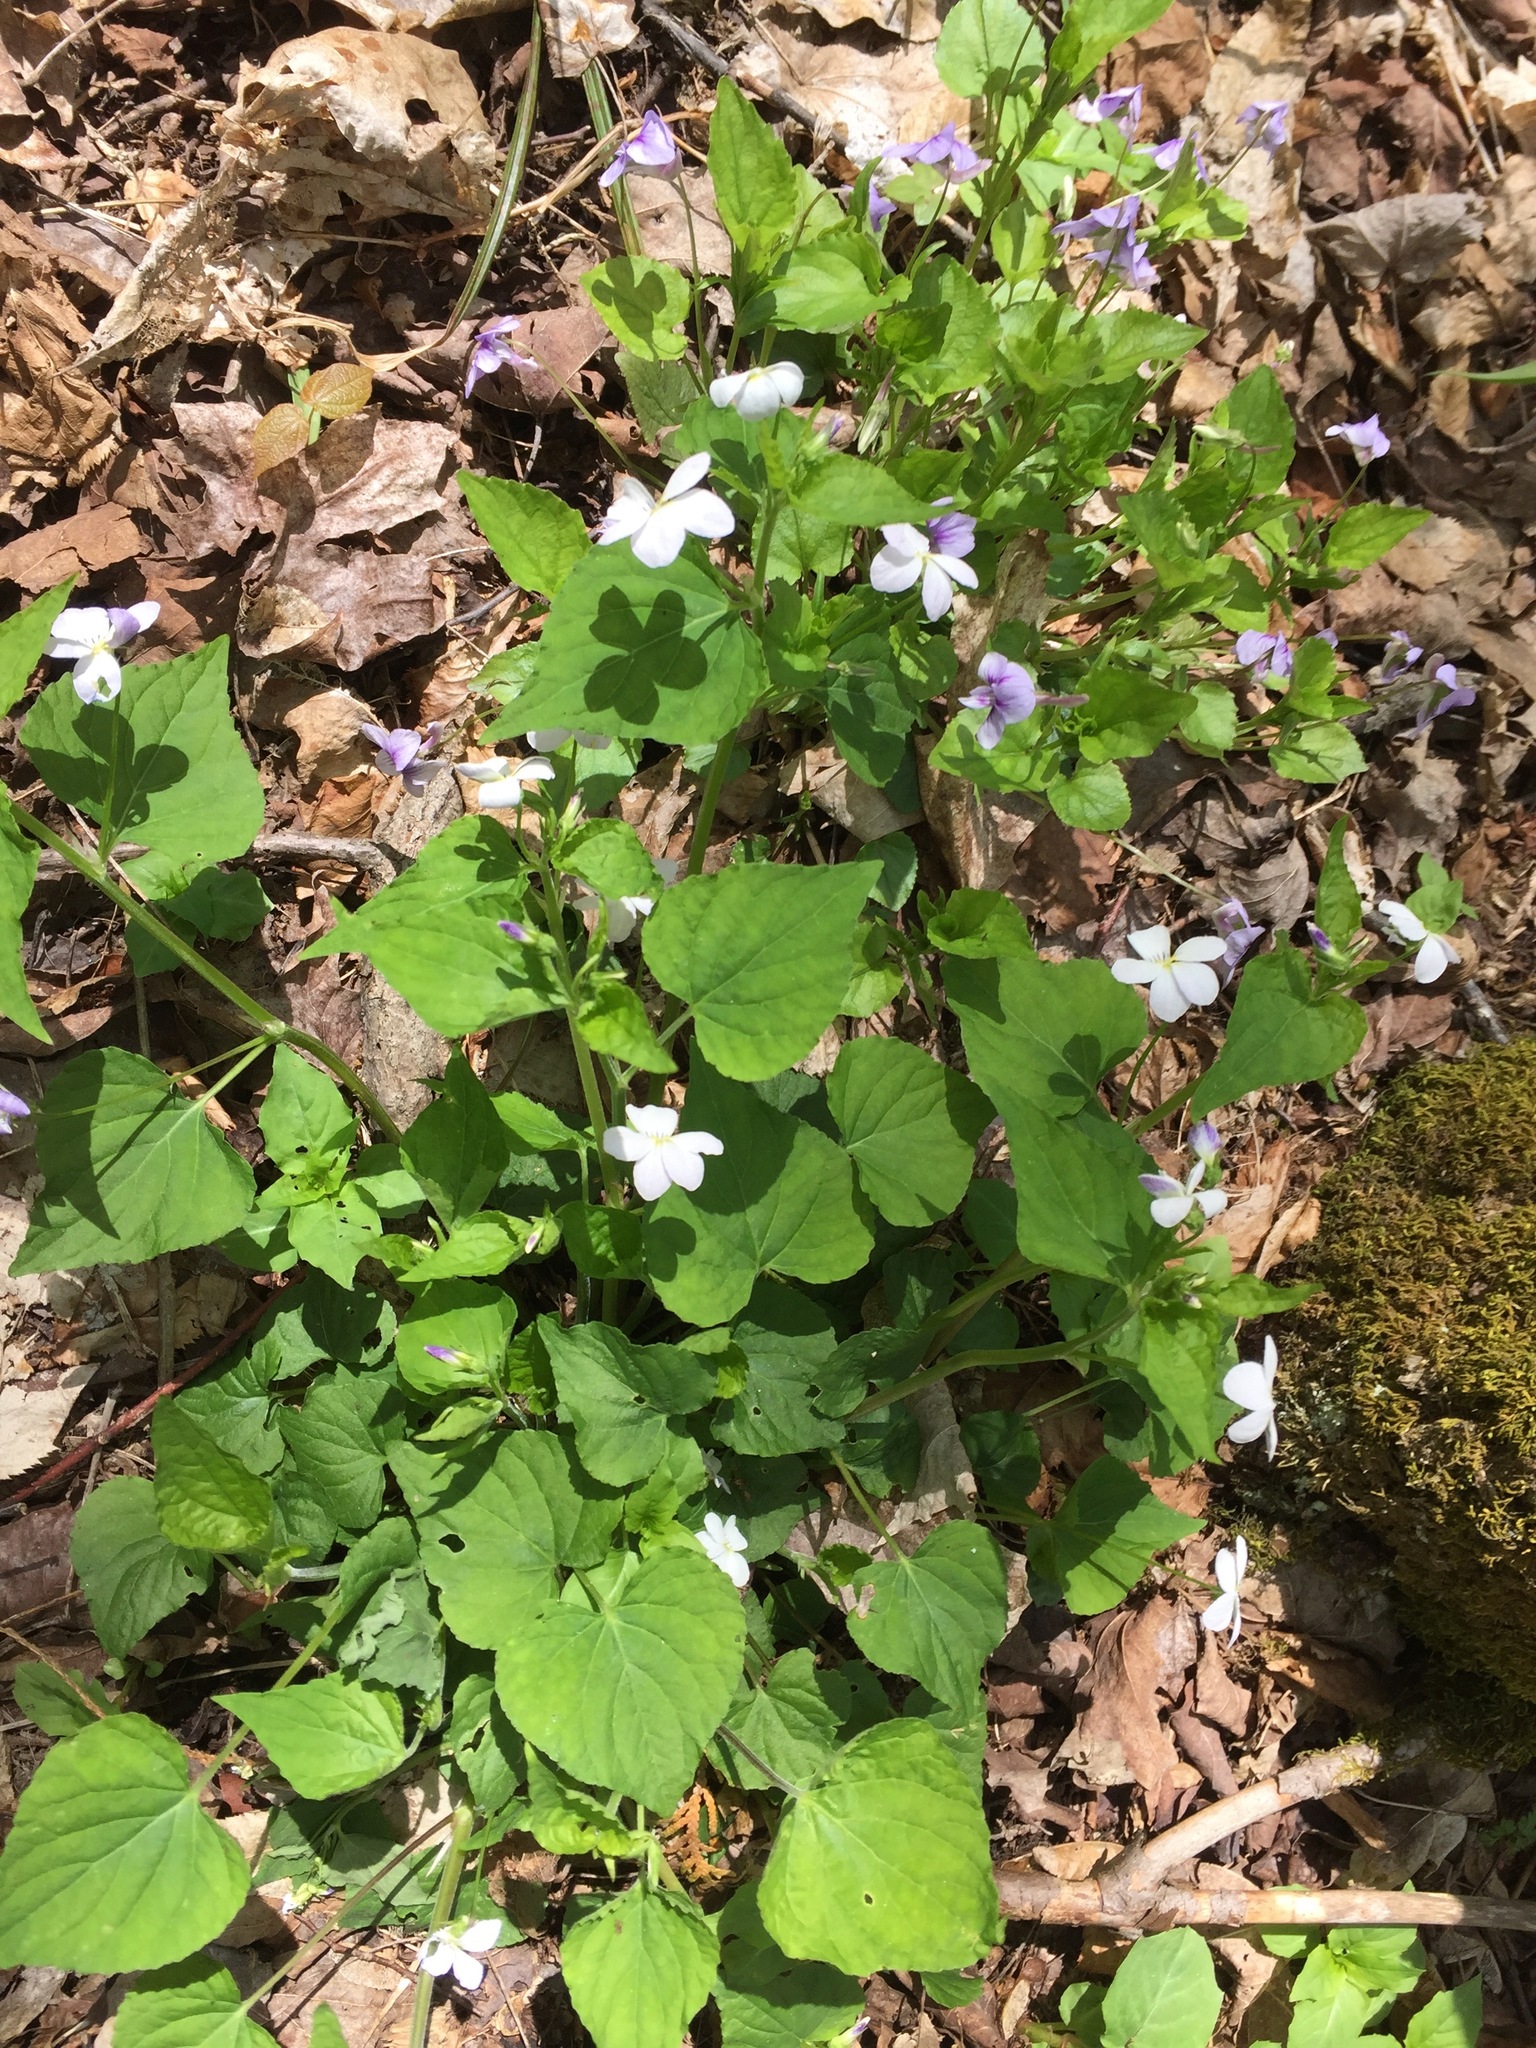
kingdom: Plantae
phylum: Tracheophyta
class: Magnoliopsida
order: Malpighiales
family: Violaceae
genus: Viola
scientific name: Viola canadensis
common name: Canada violet
